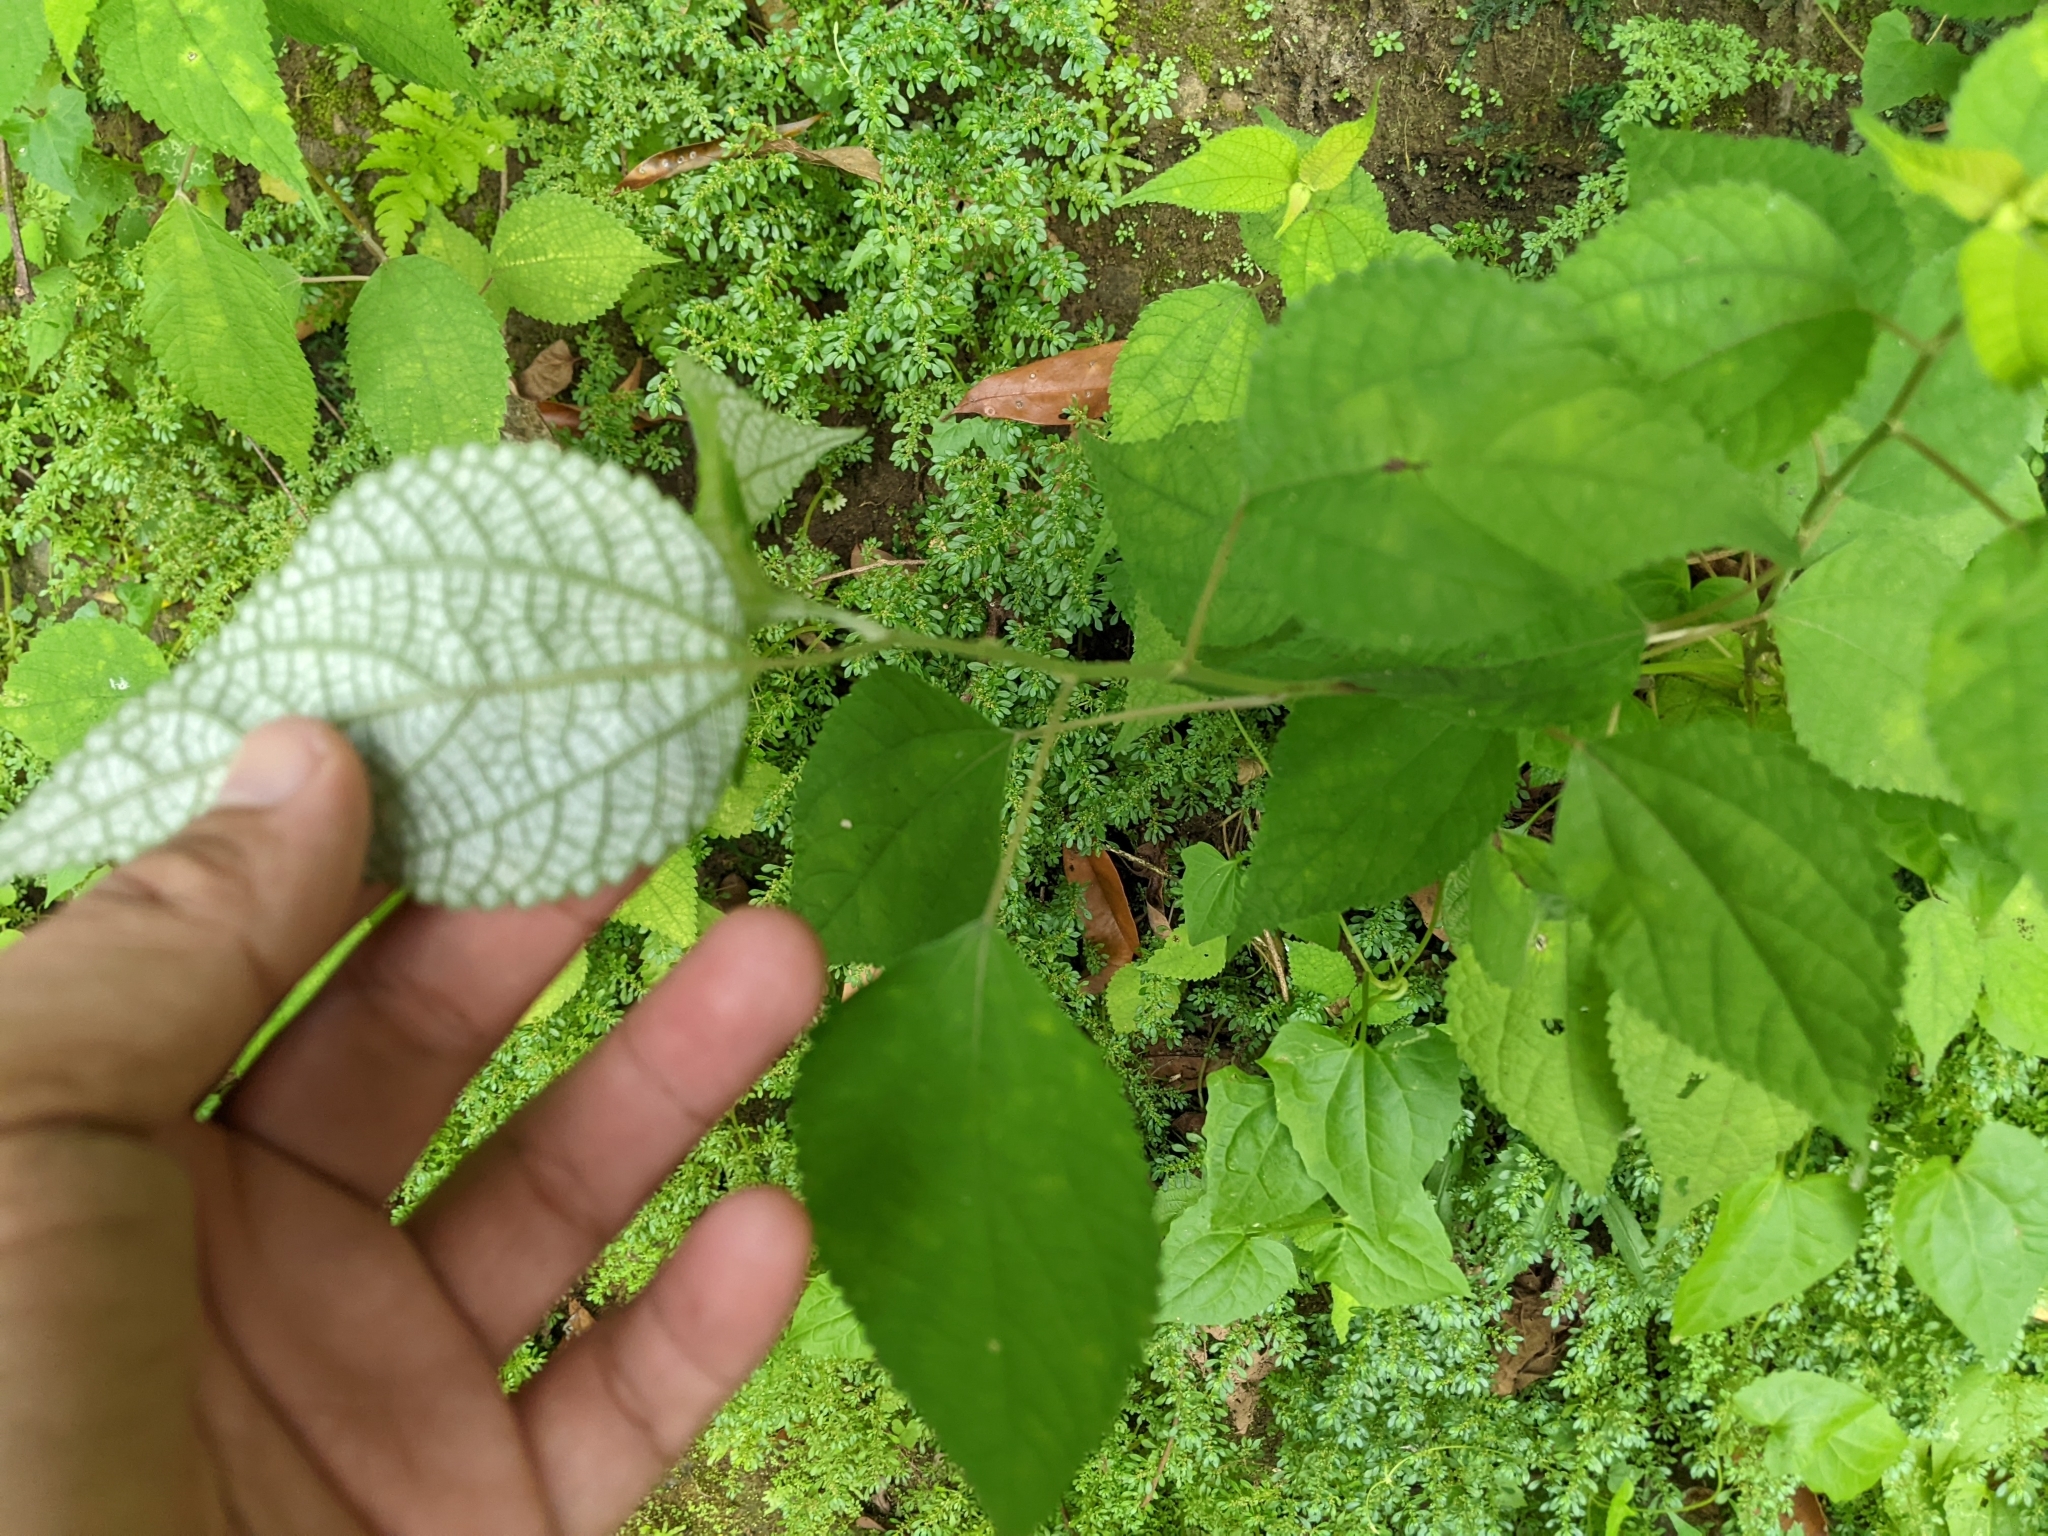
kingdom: Plantae
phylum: Tracheophyta
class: Magnoliopsida
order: Rosales
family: Urticaceae
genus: Boehmeria
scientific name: Boehmeria nivea
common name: Ramie chinese grass
